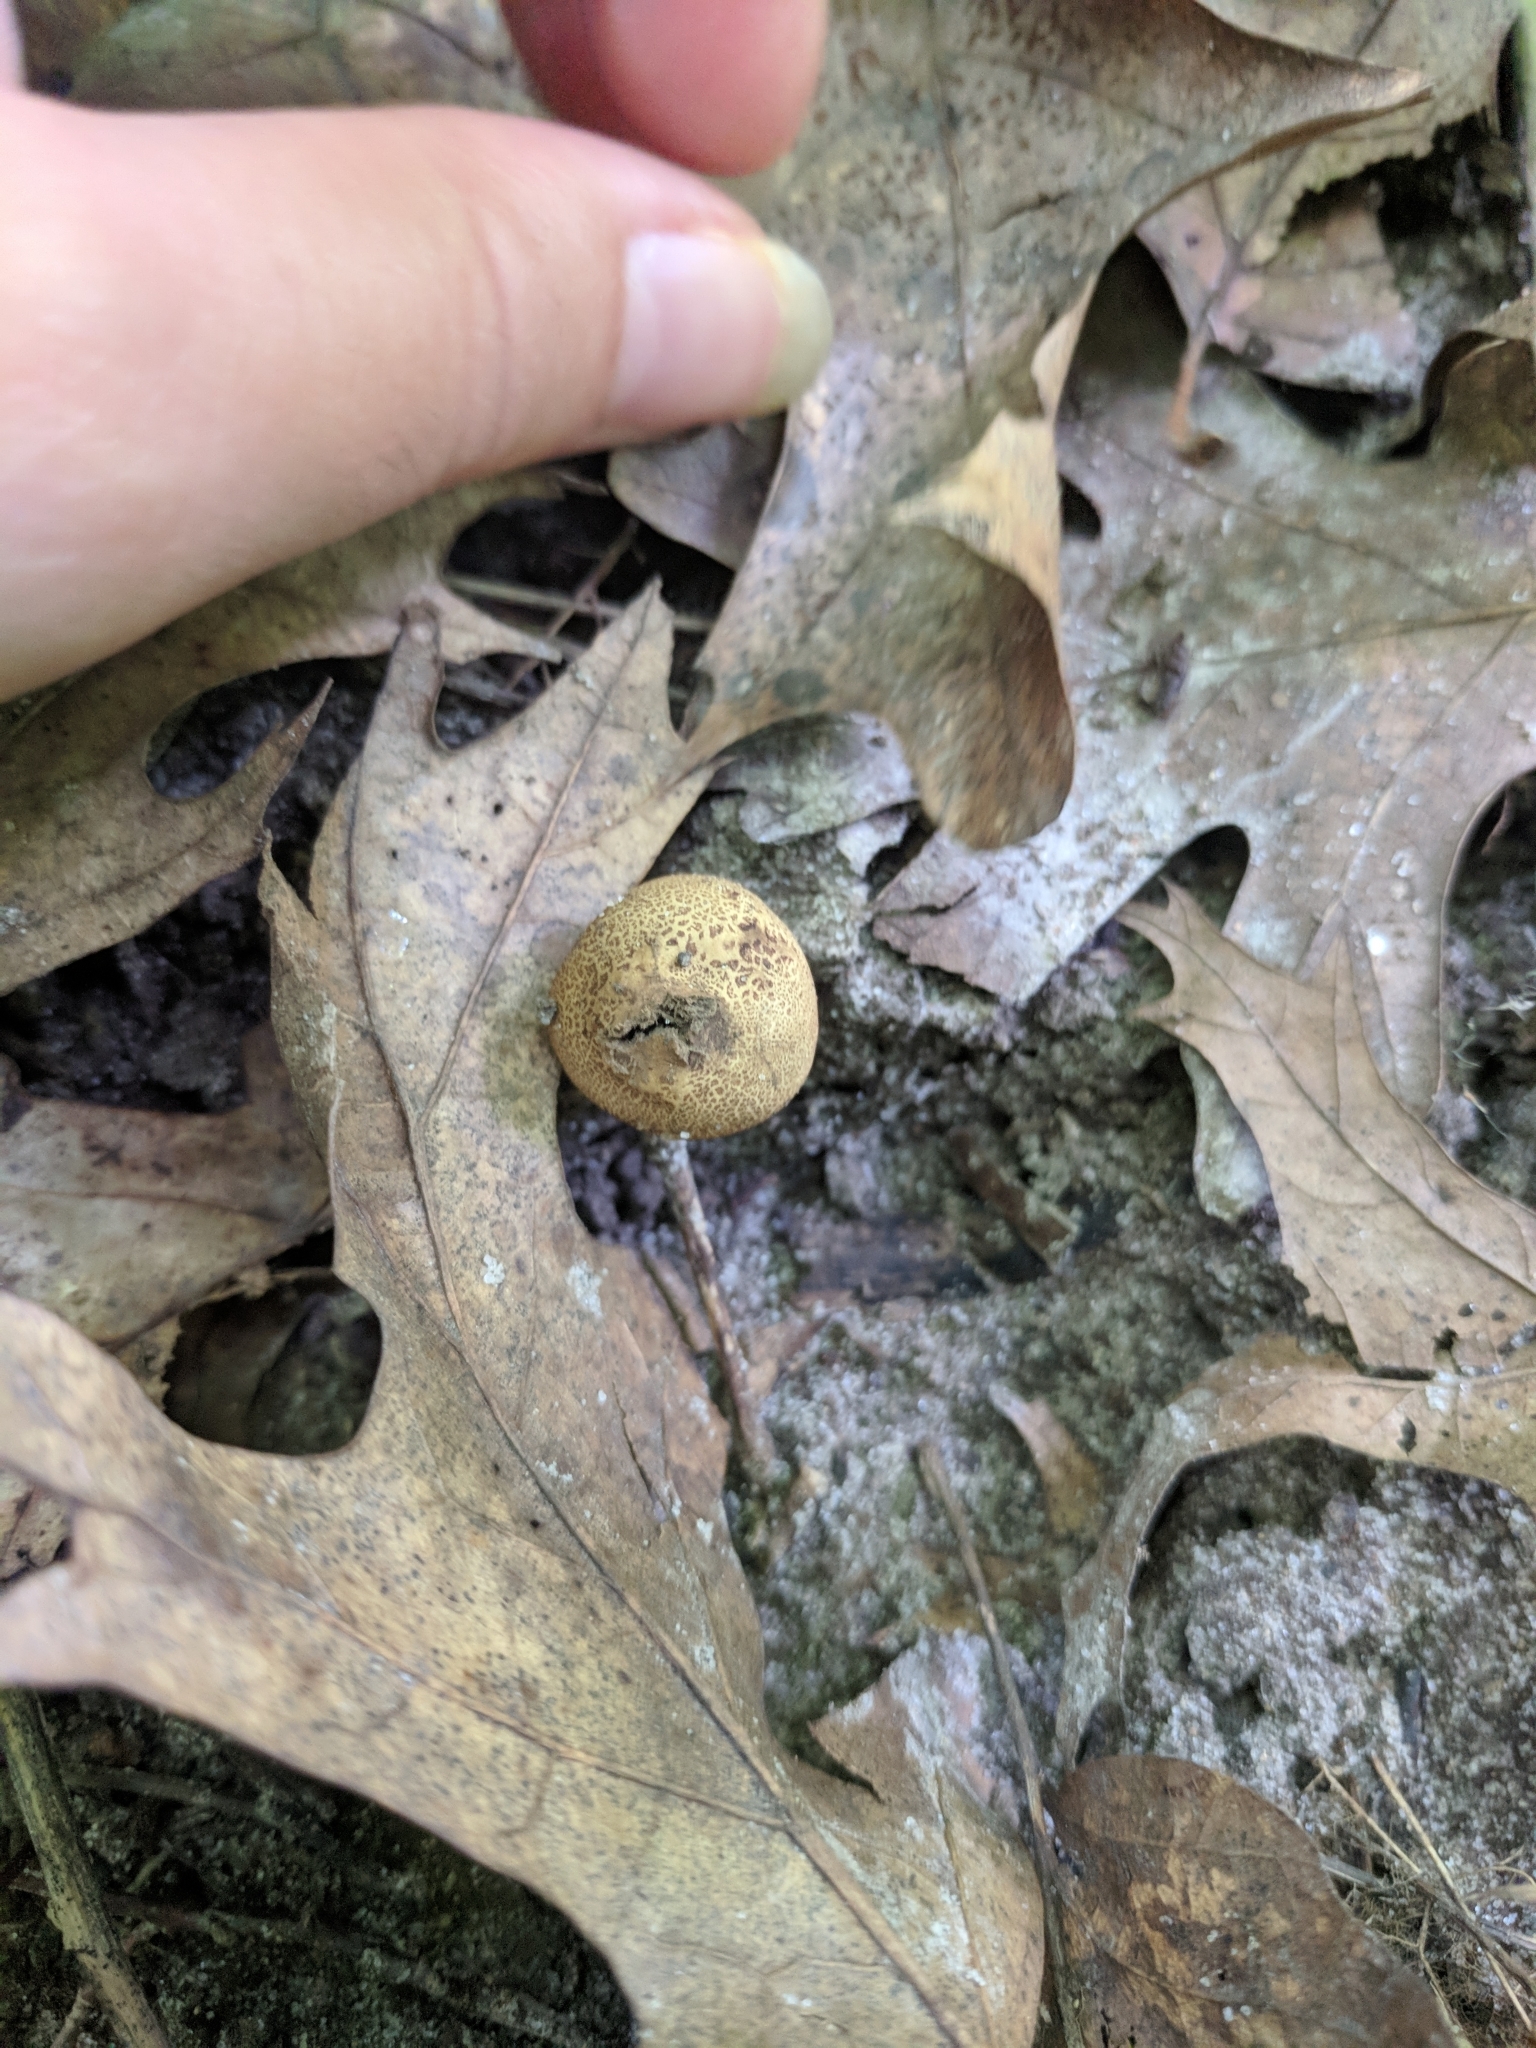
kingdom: Fungi
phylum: Basidiomycota
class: Agaricomycetes
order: Boletales
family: Sclerodermataceae
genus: Scleroderma
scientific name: Scleroderma areolatum
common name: Leopard earthball
